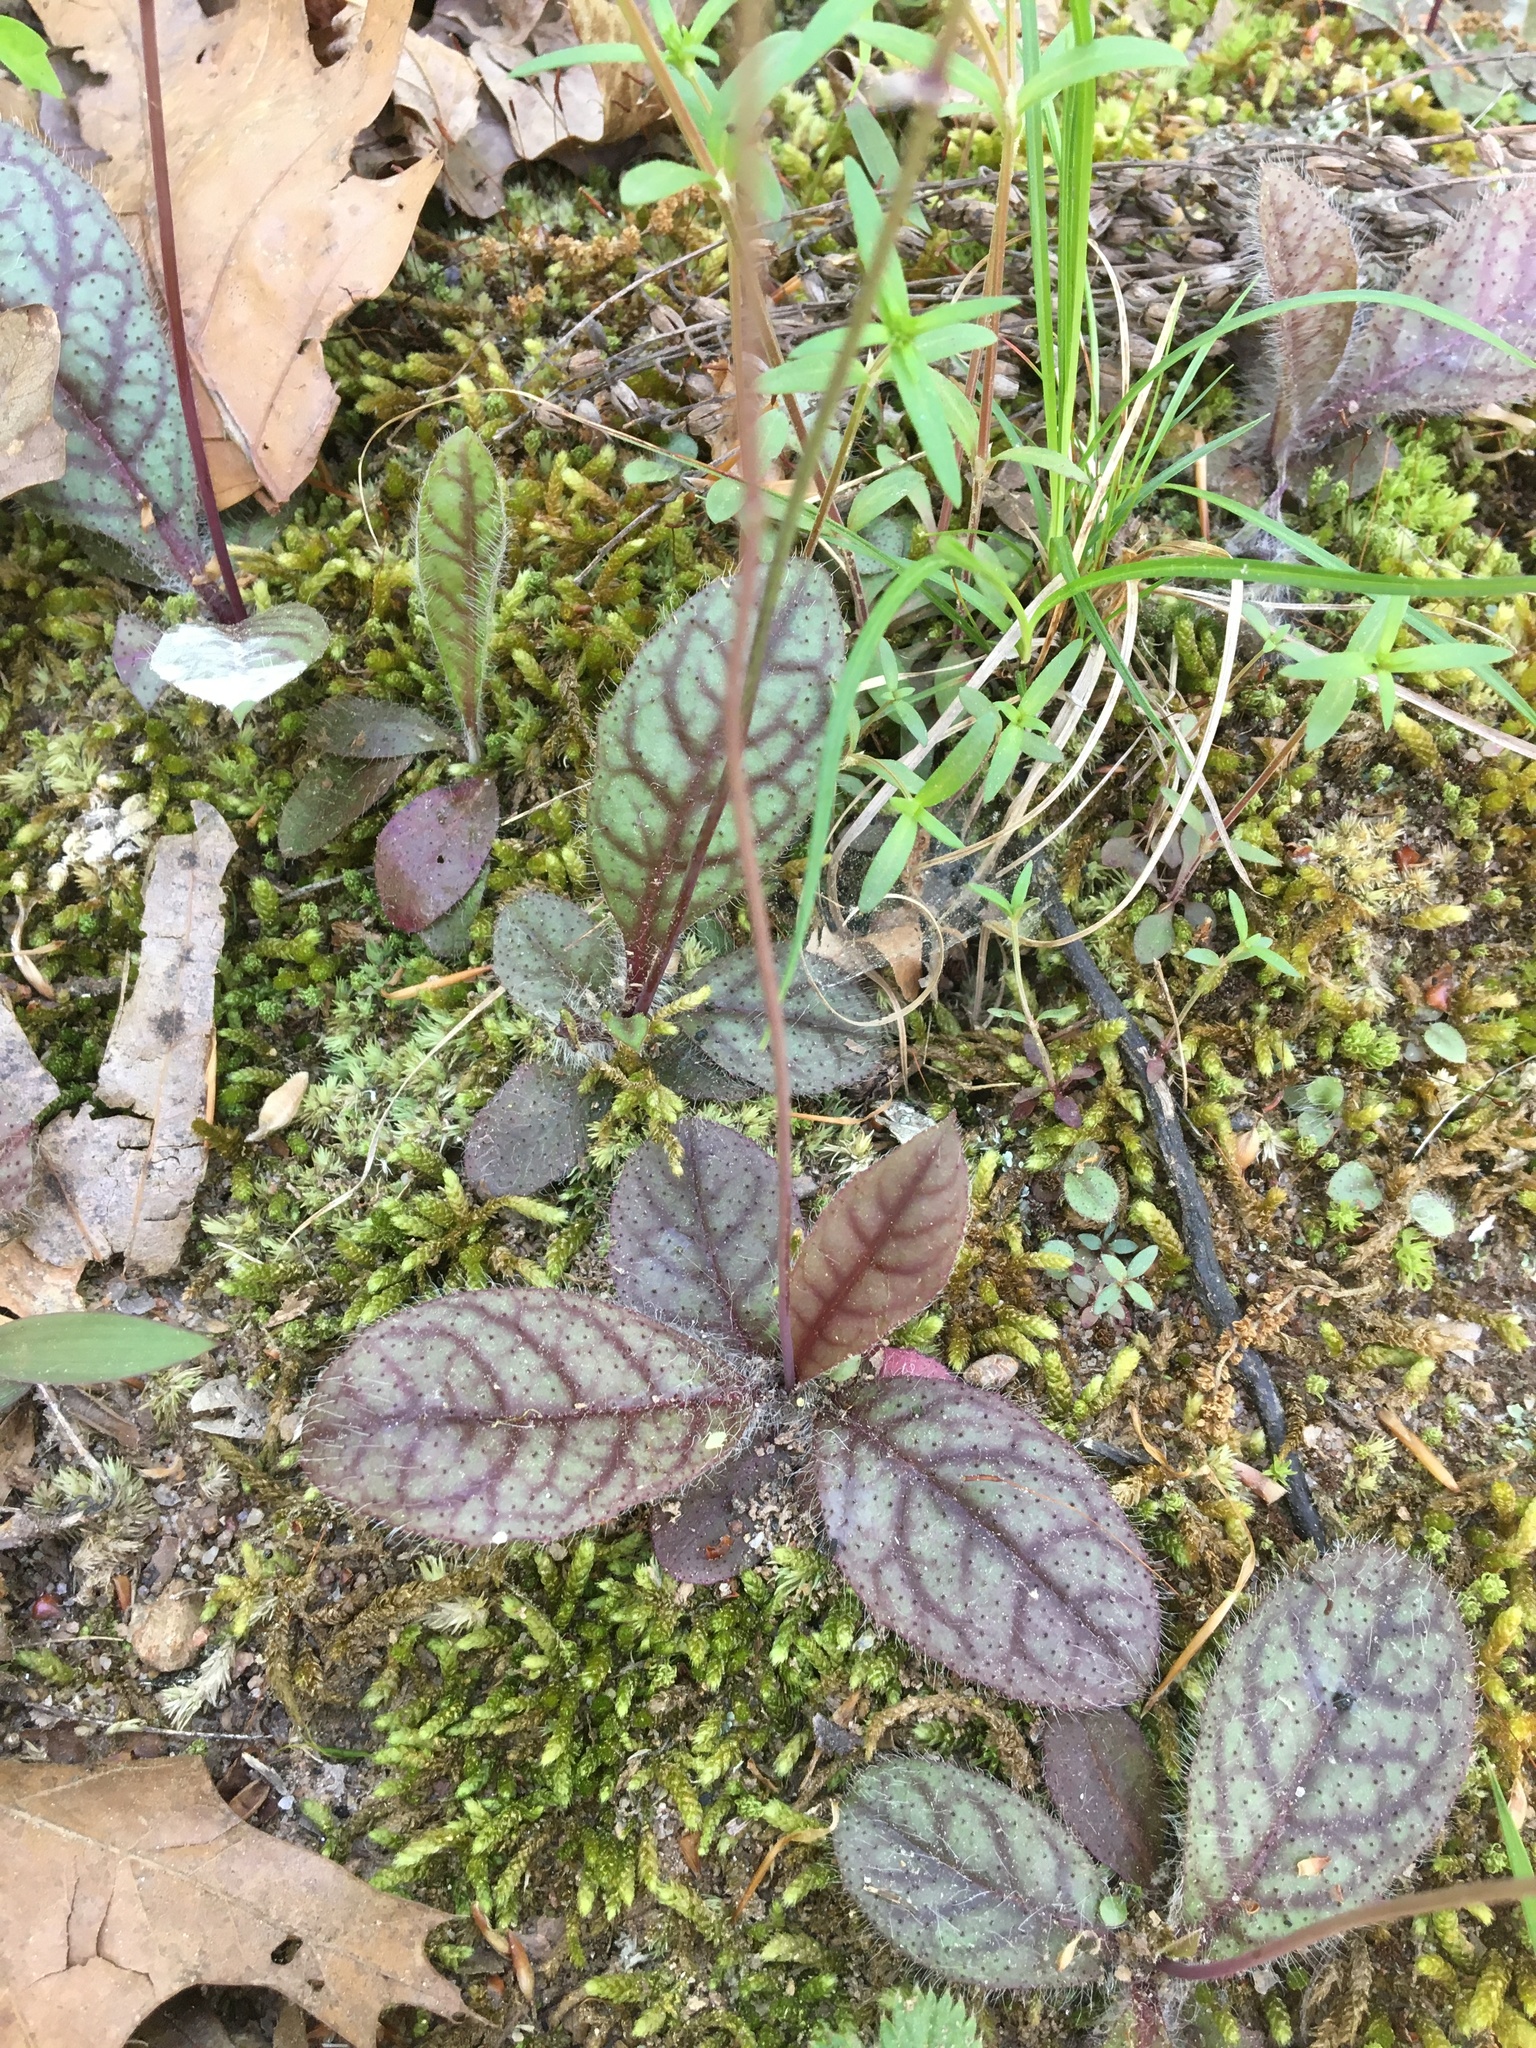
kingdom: Plantae
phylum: Tracheophyta
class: Magnoliopsida
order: Asterales
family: Asteraceae
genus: Hieracium
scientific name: Hieracium venosum
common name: Rattlesnake hawkweed
